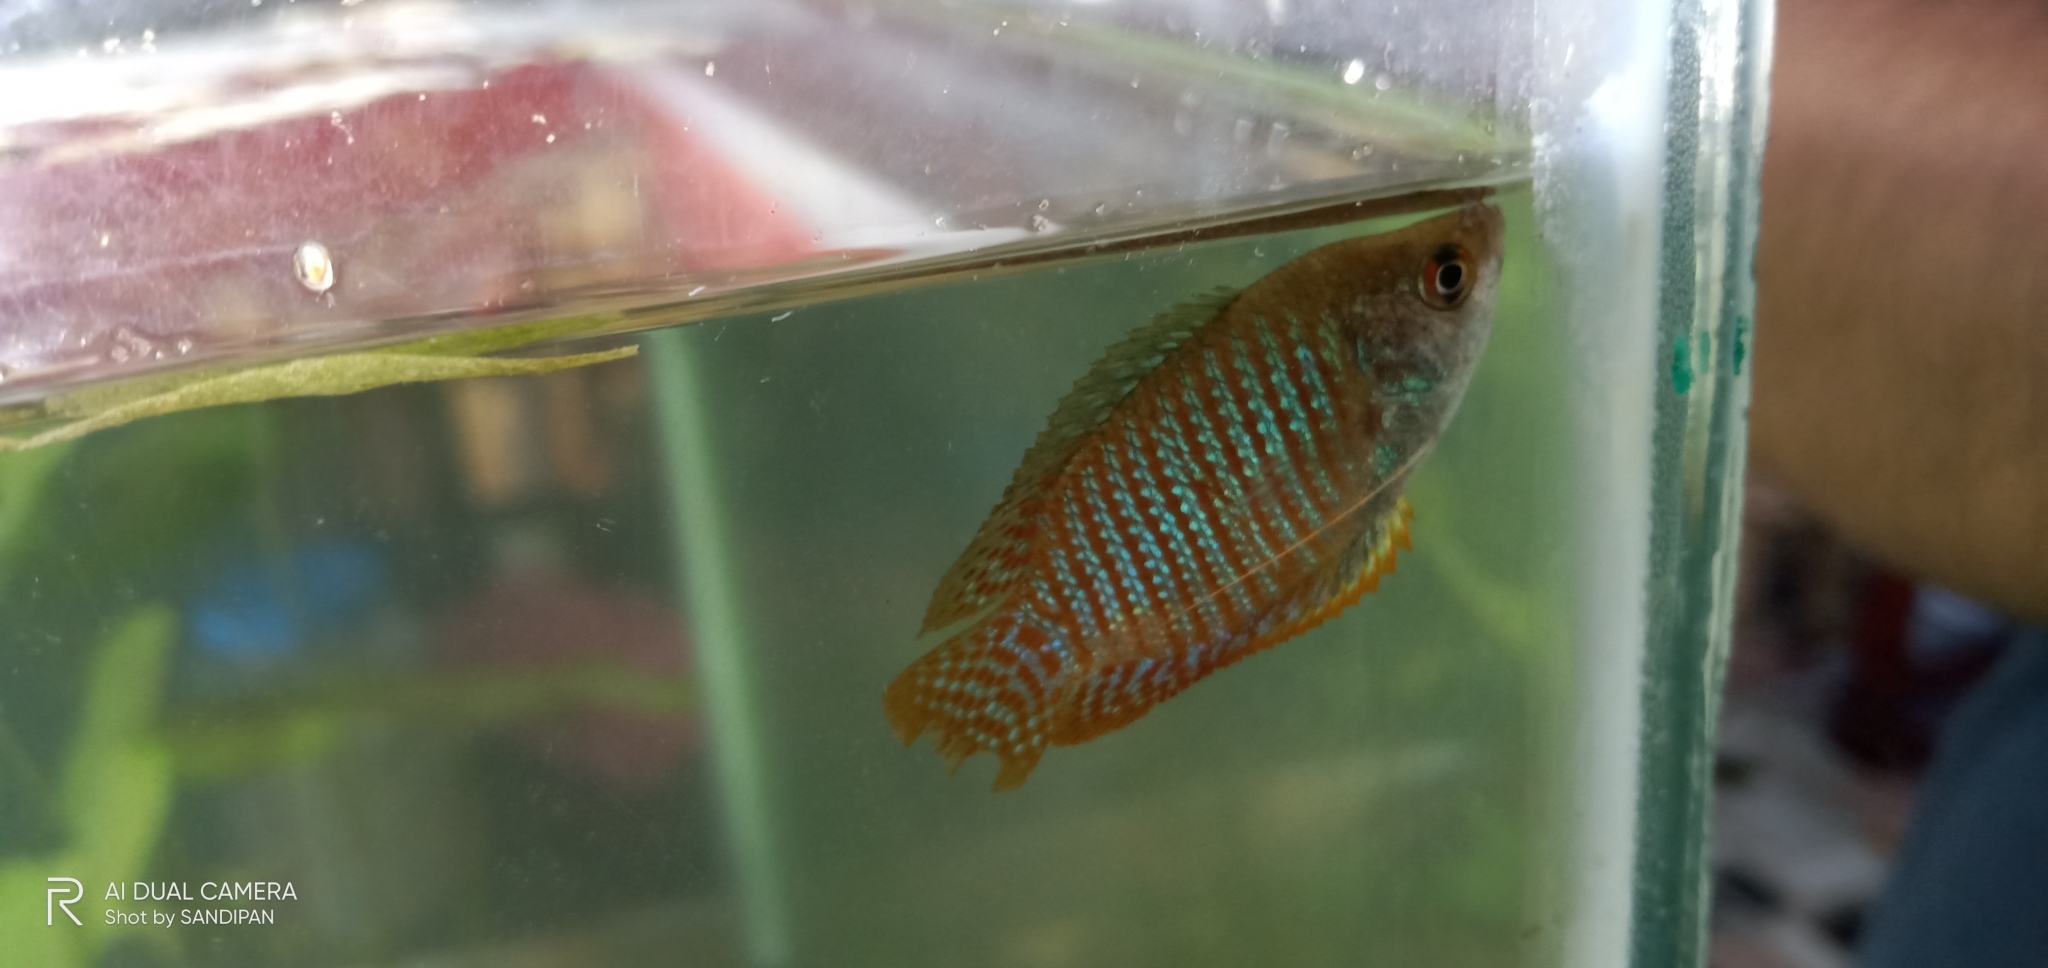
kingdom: Animalia
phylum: Chordata
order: Perciformes
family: Osphronemidae
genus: Trichogaster
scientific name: Trichogaster fasciata
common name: Banded gourami
